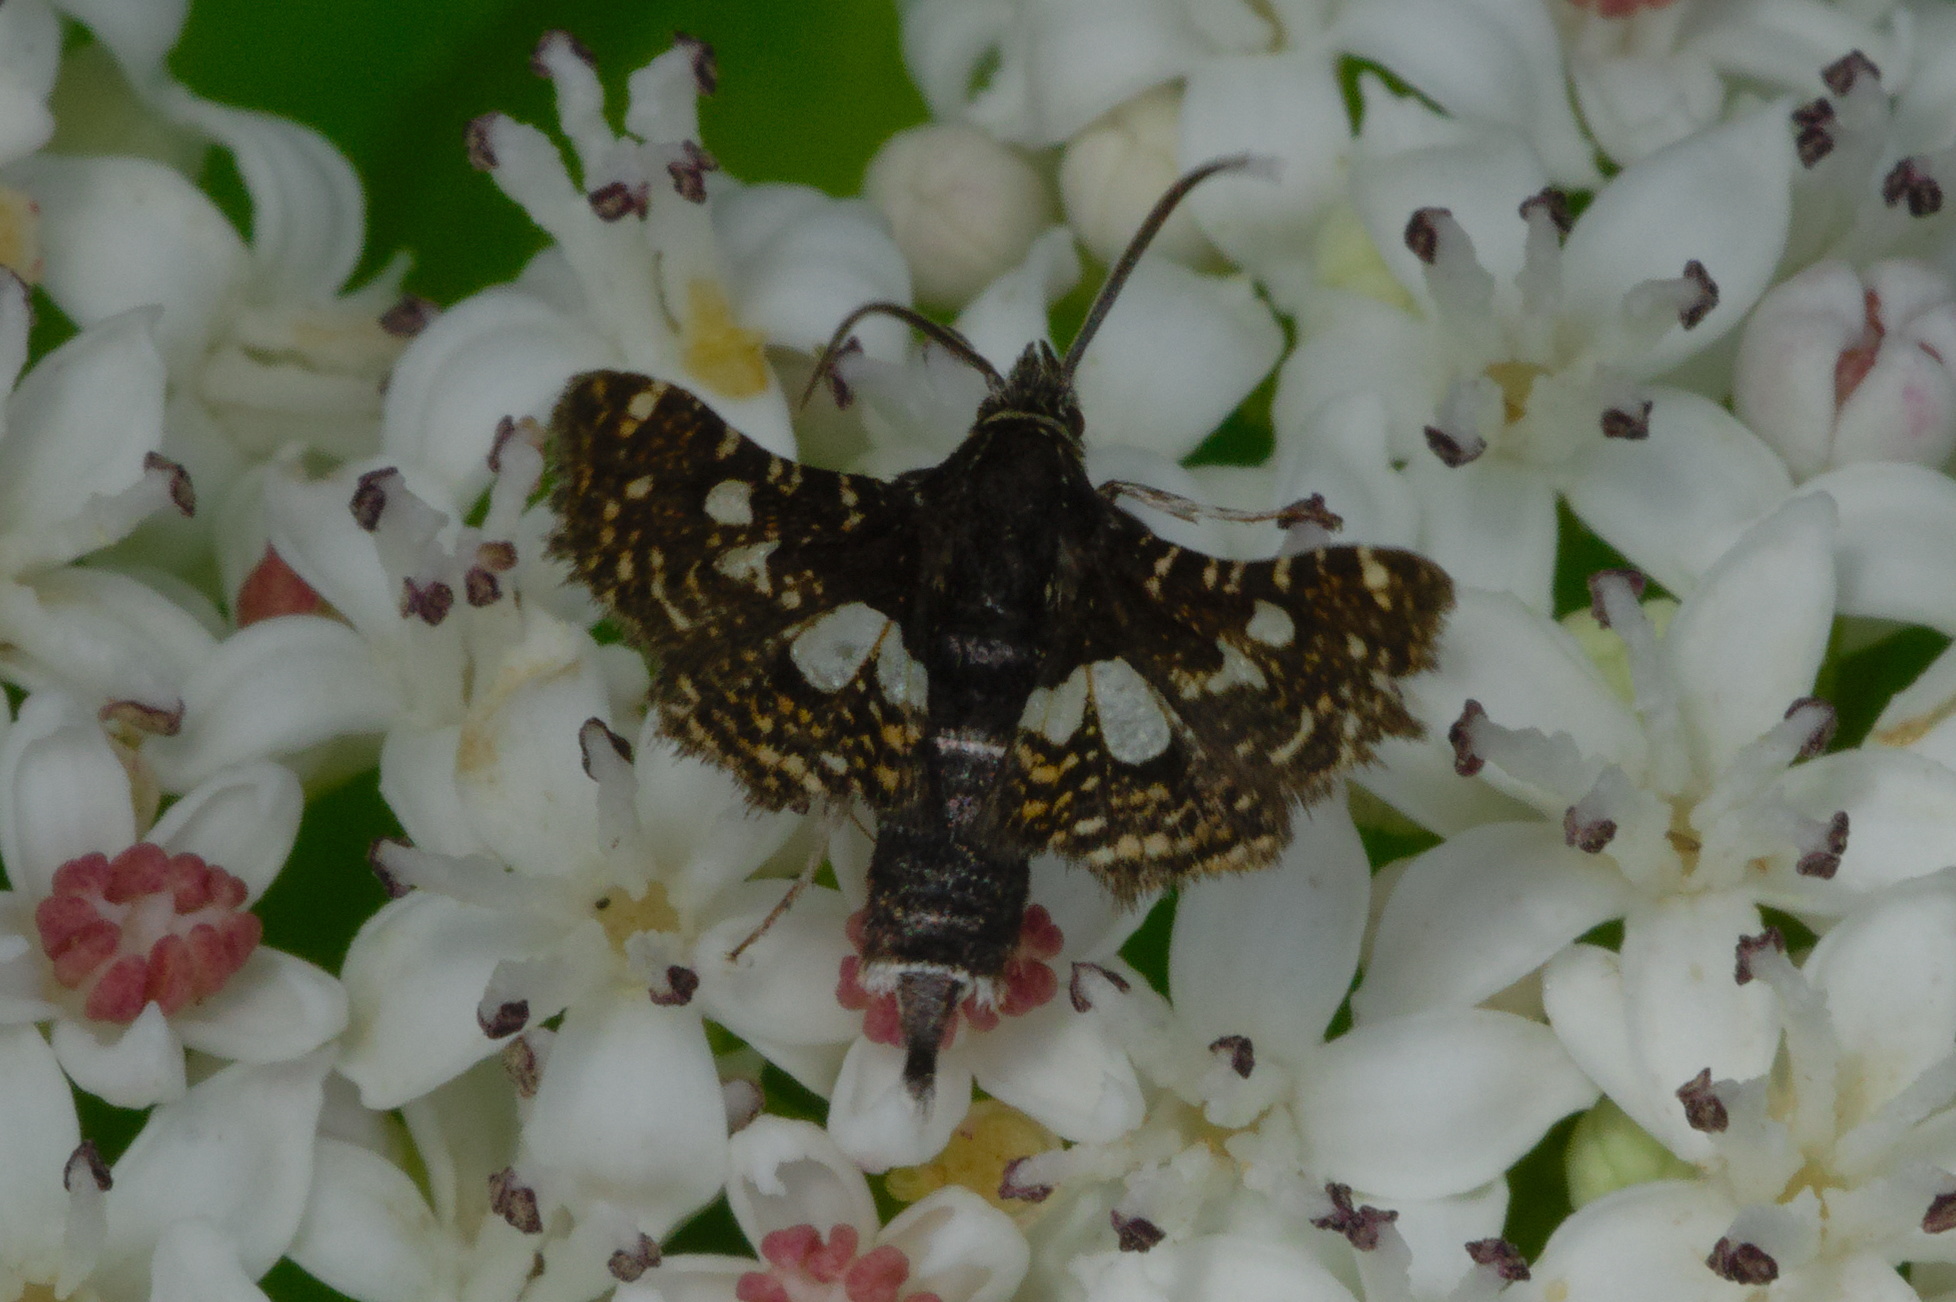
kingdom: Animalia
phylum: Arthropoda
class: Insecta
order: Lepidoptera
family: Thyrididae
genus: Thyris
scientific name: Thyris fenestrella
